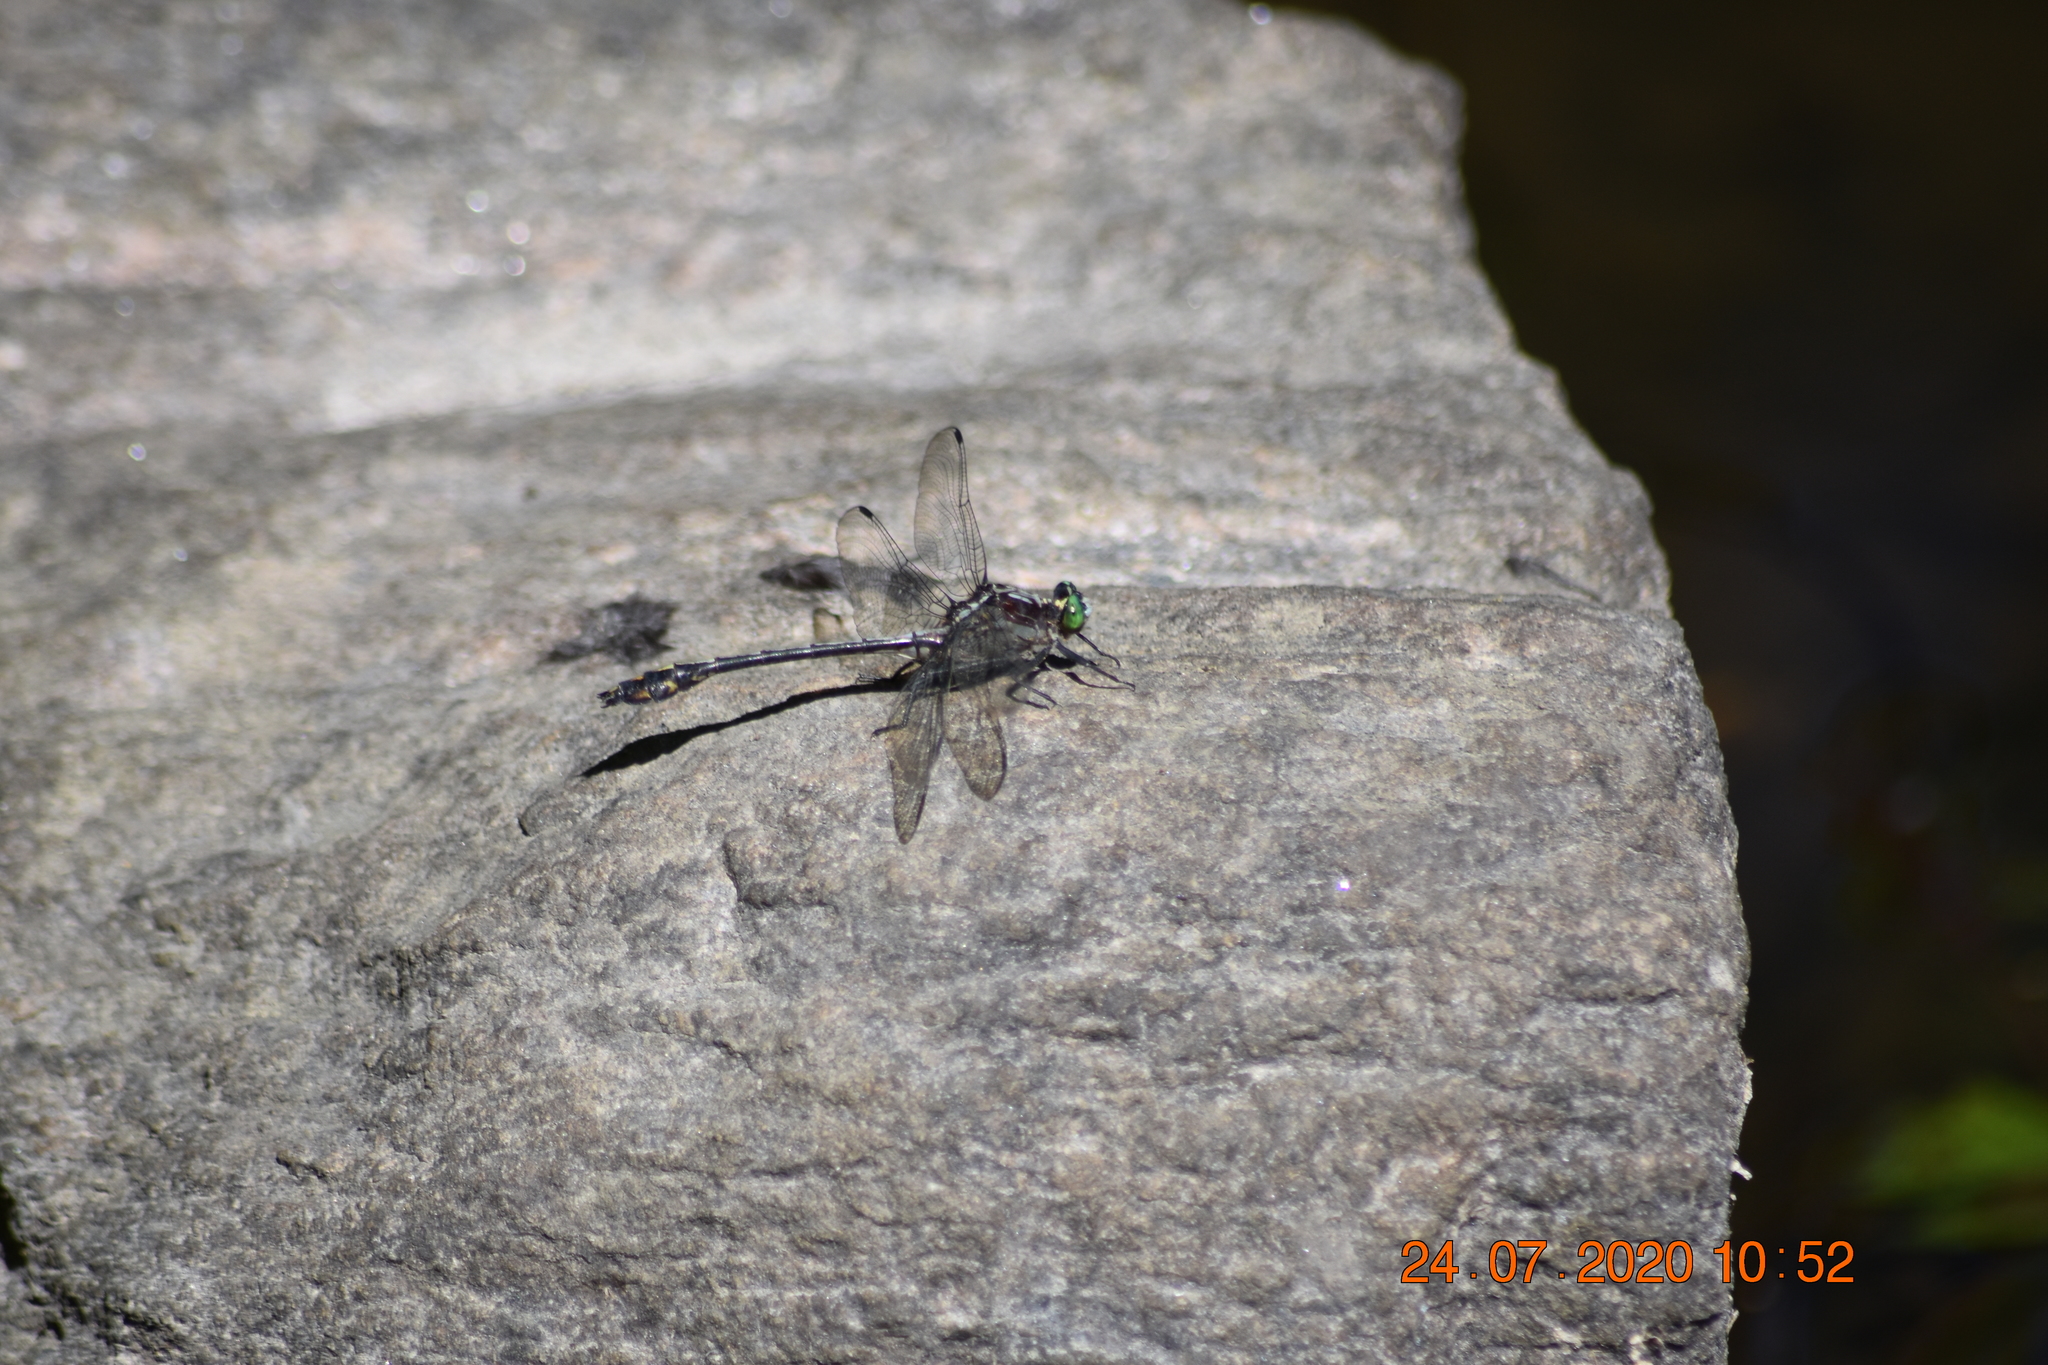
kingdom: Animalia
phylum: Arthropoda
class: Insecta
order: Odonata
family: Gomphidae
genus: Dromogomphus
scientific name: Dromogomphus spinosus
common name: Black-shouldered spinyleg
